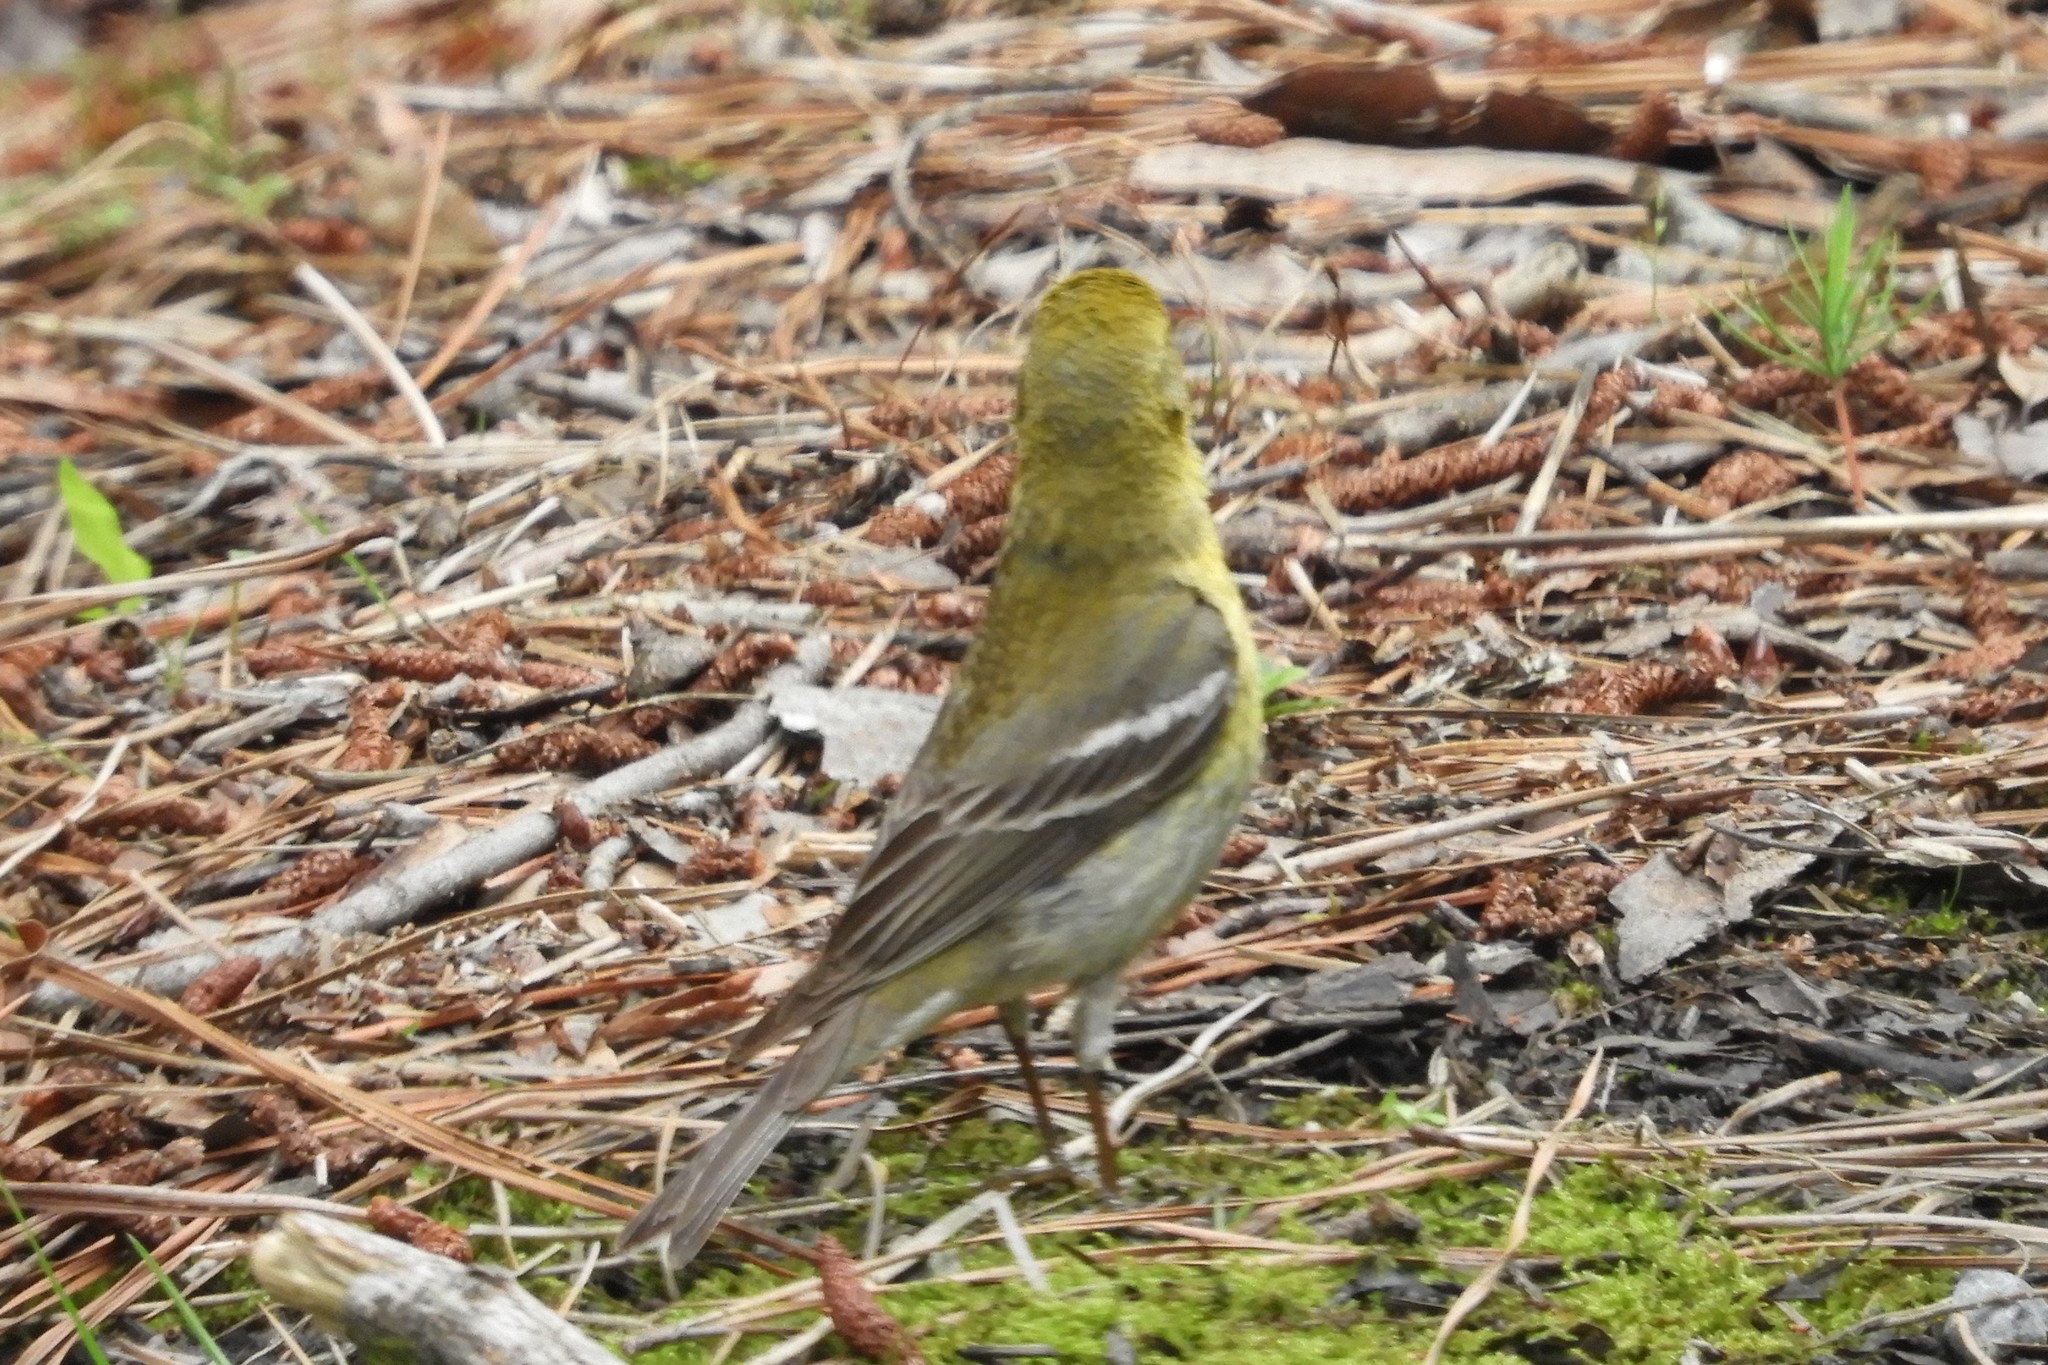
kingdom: Animalia
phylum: Chordata
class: Aves
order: Passeriformes
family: Parulidae
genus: Setophaga
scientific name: Setophaga pinus
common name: Pine warbler
